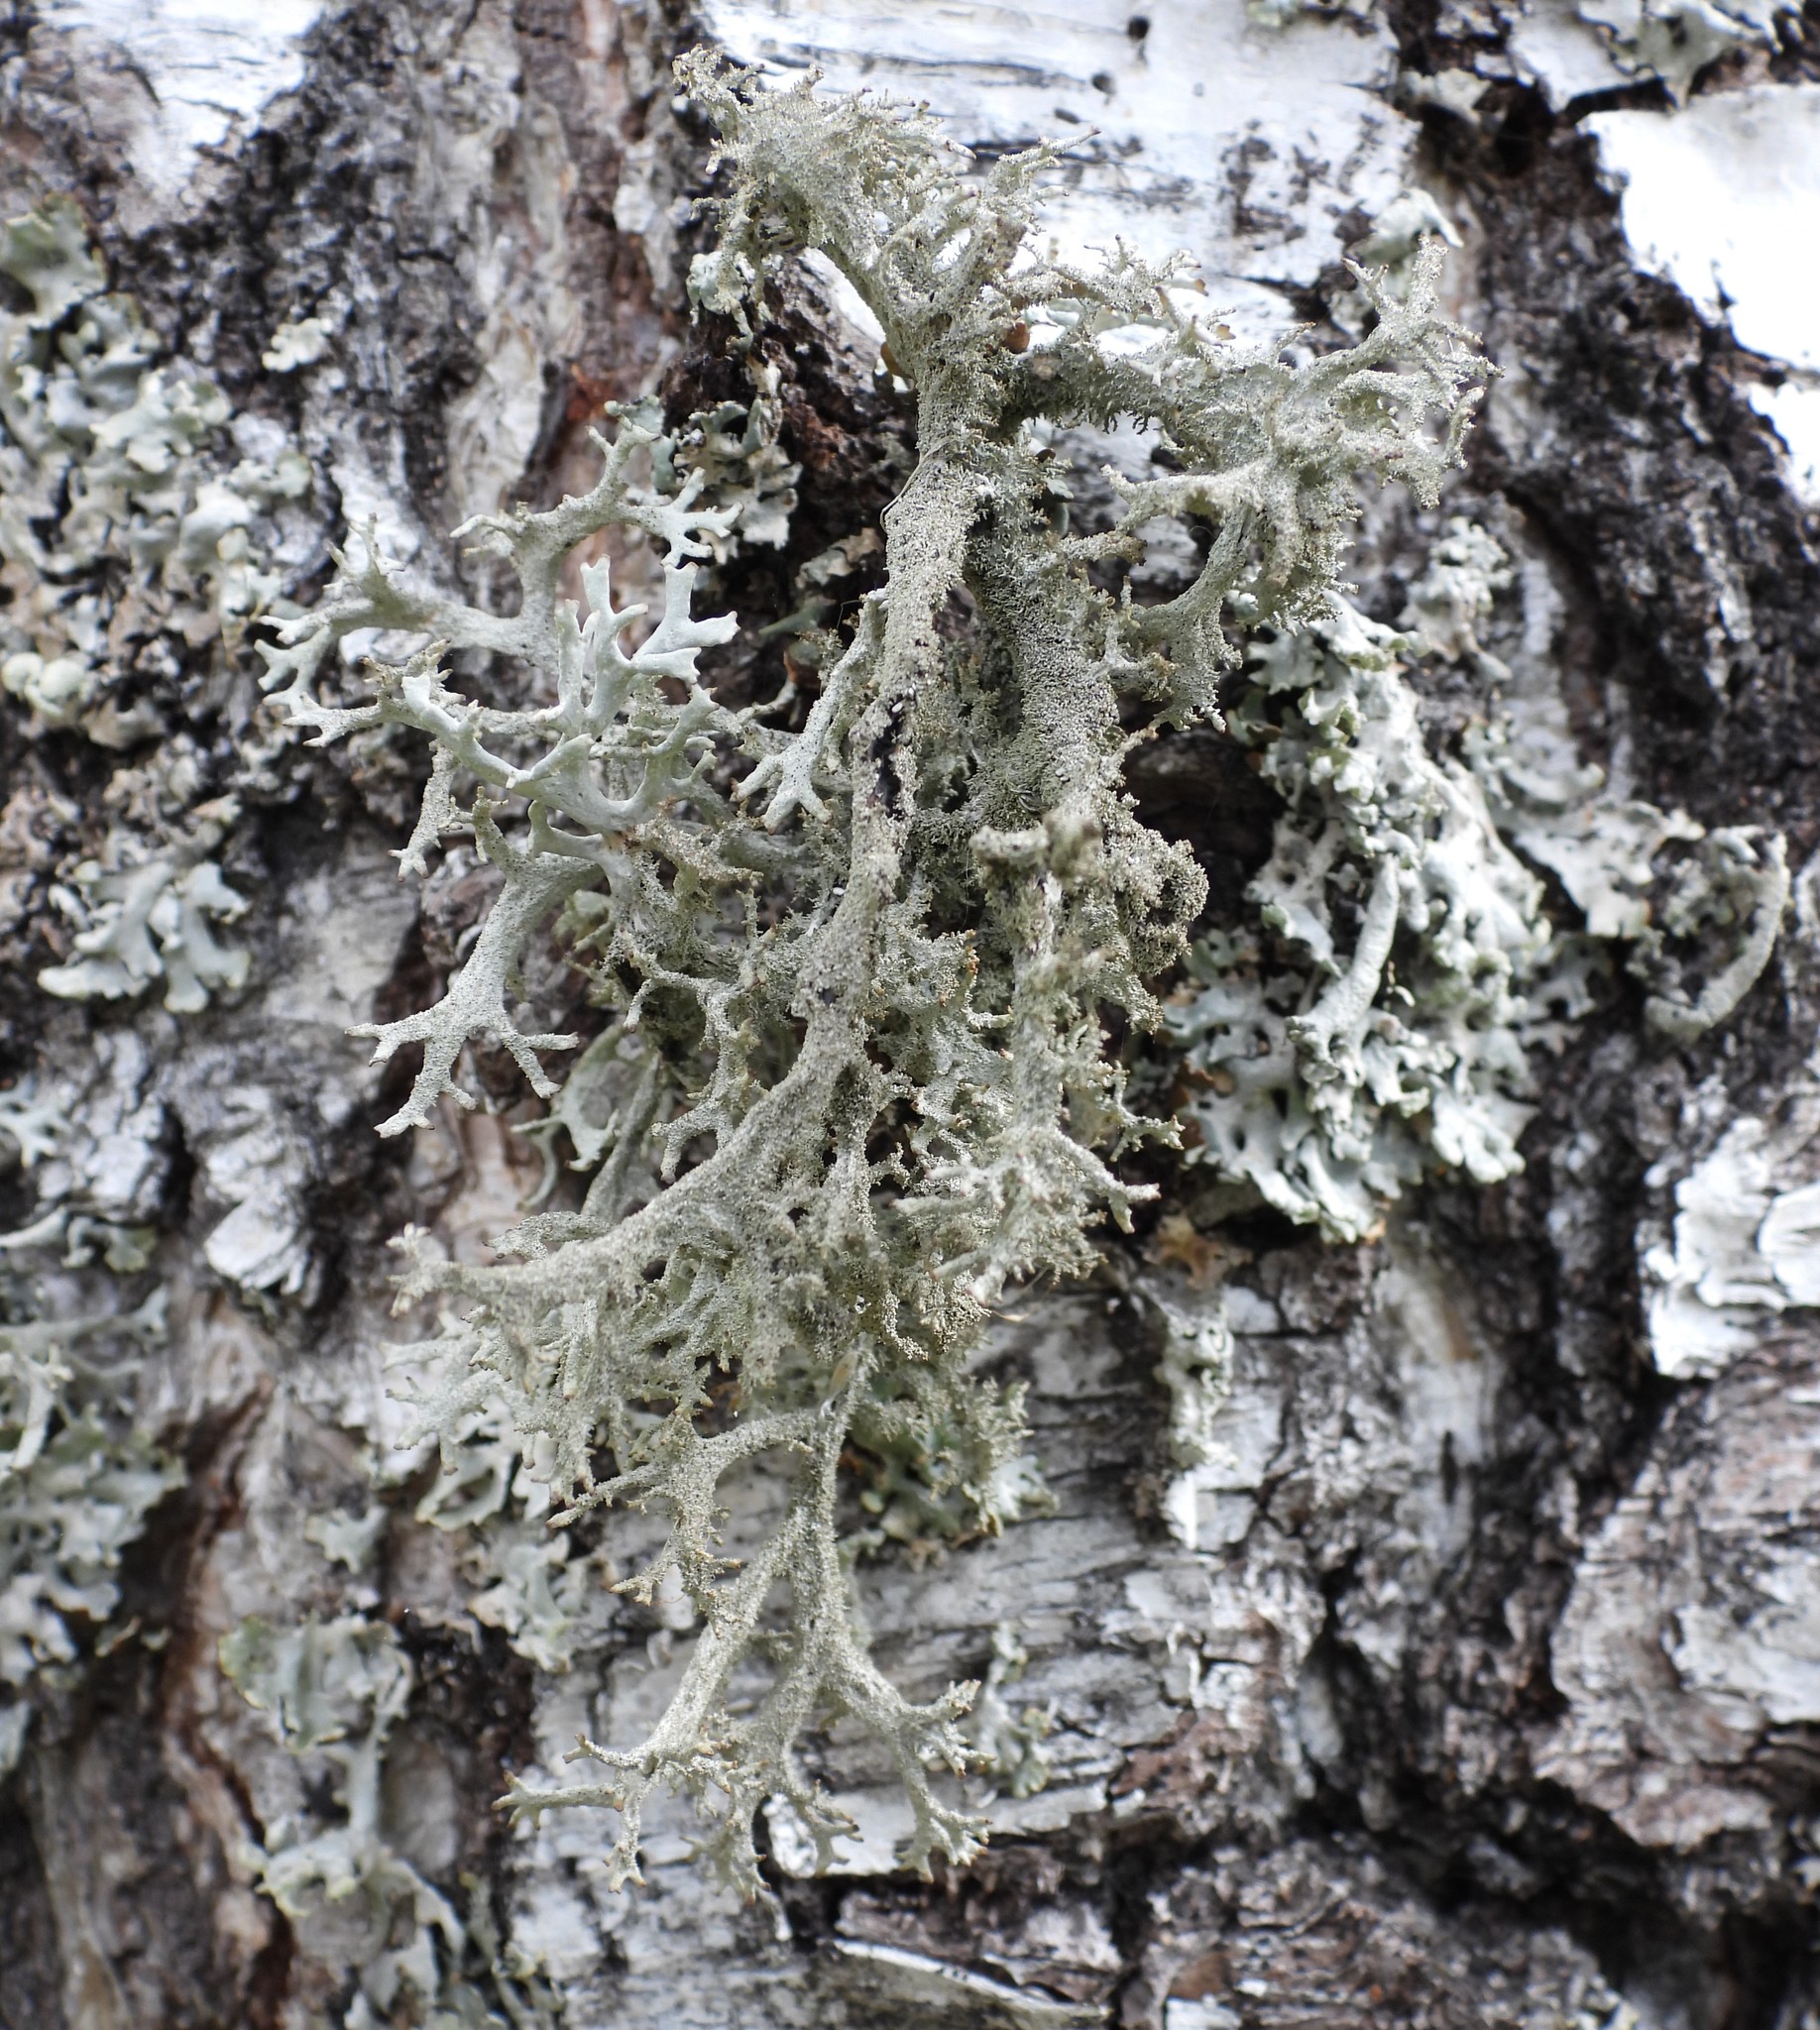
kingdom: Fungi
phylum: Ascomycota
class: Lecanoromycetes
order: Lecanorales
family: Parmeliaceae
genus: Pseudevernia
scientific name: Pseudevernia furfuracea
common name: Tree moss
